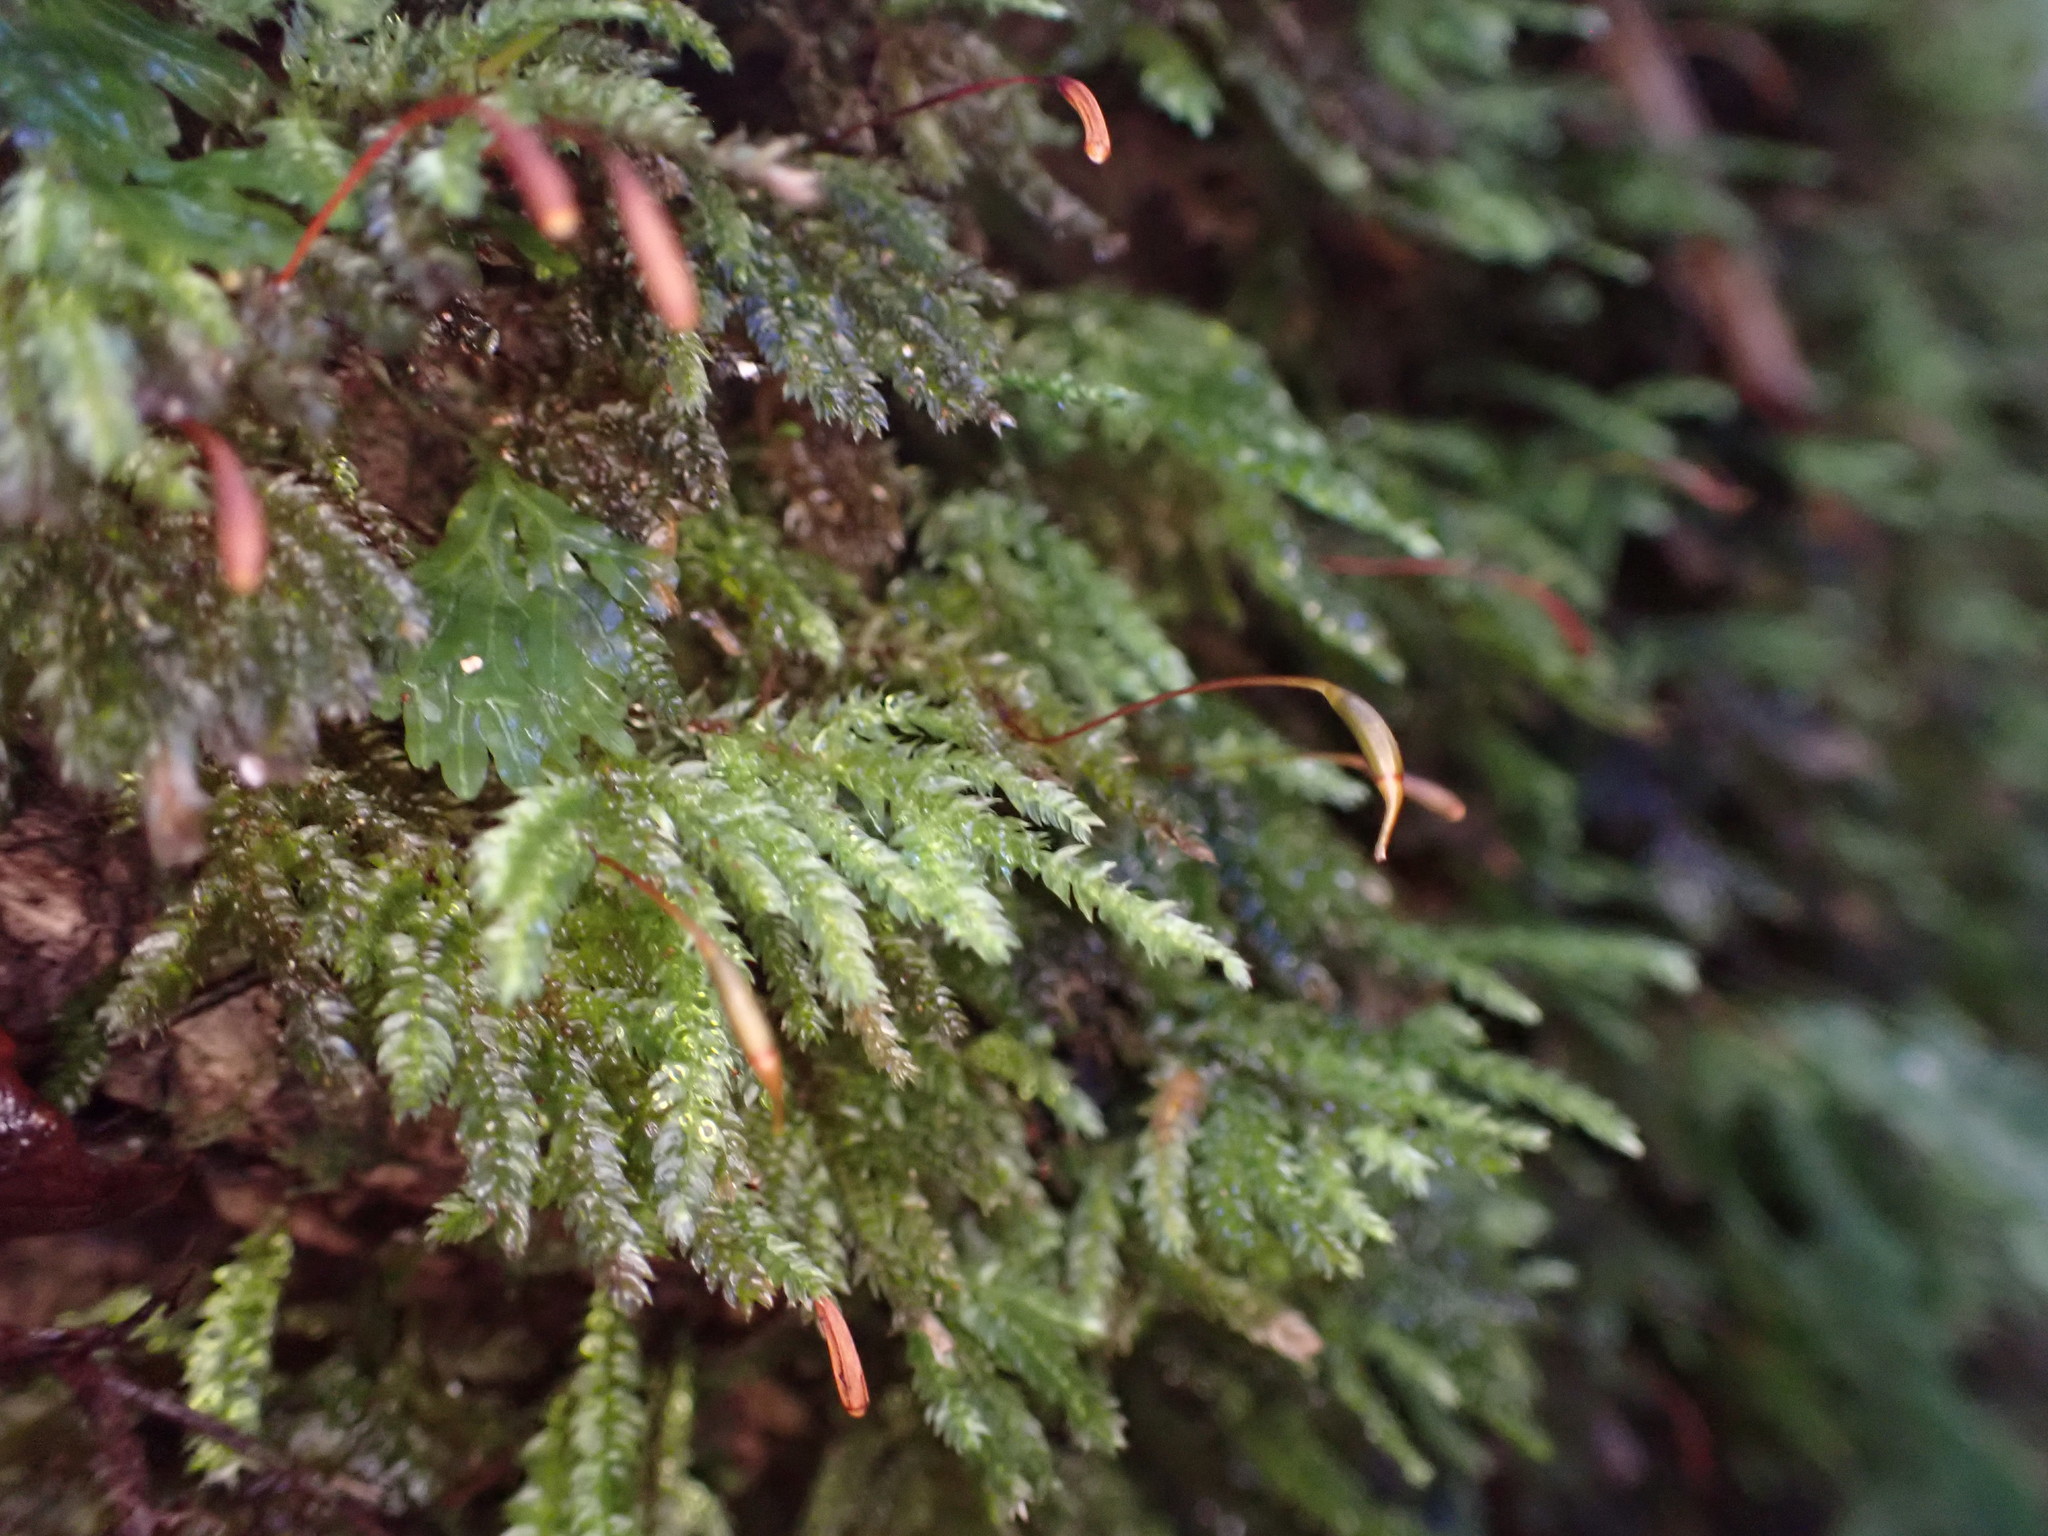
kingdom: Plantae
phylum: Bryophyta
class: Bryopsida
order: Hypnodendrales
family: Spiridentaceae
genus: Hypnodendron
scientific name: Hypnodendron arcuatum
